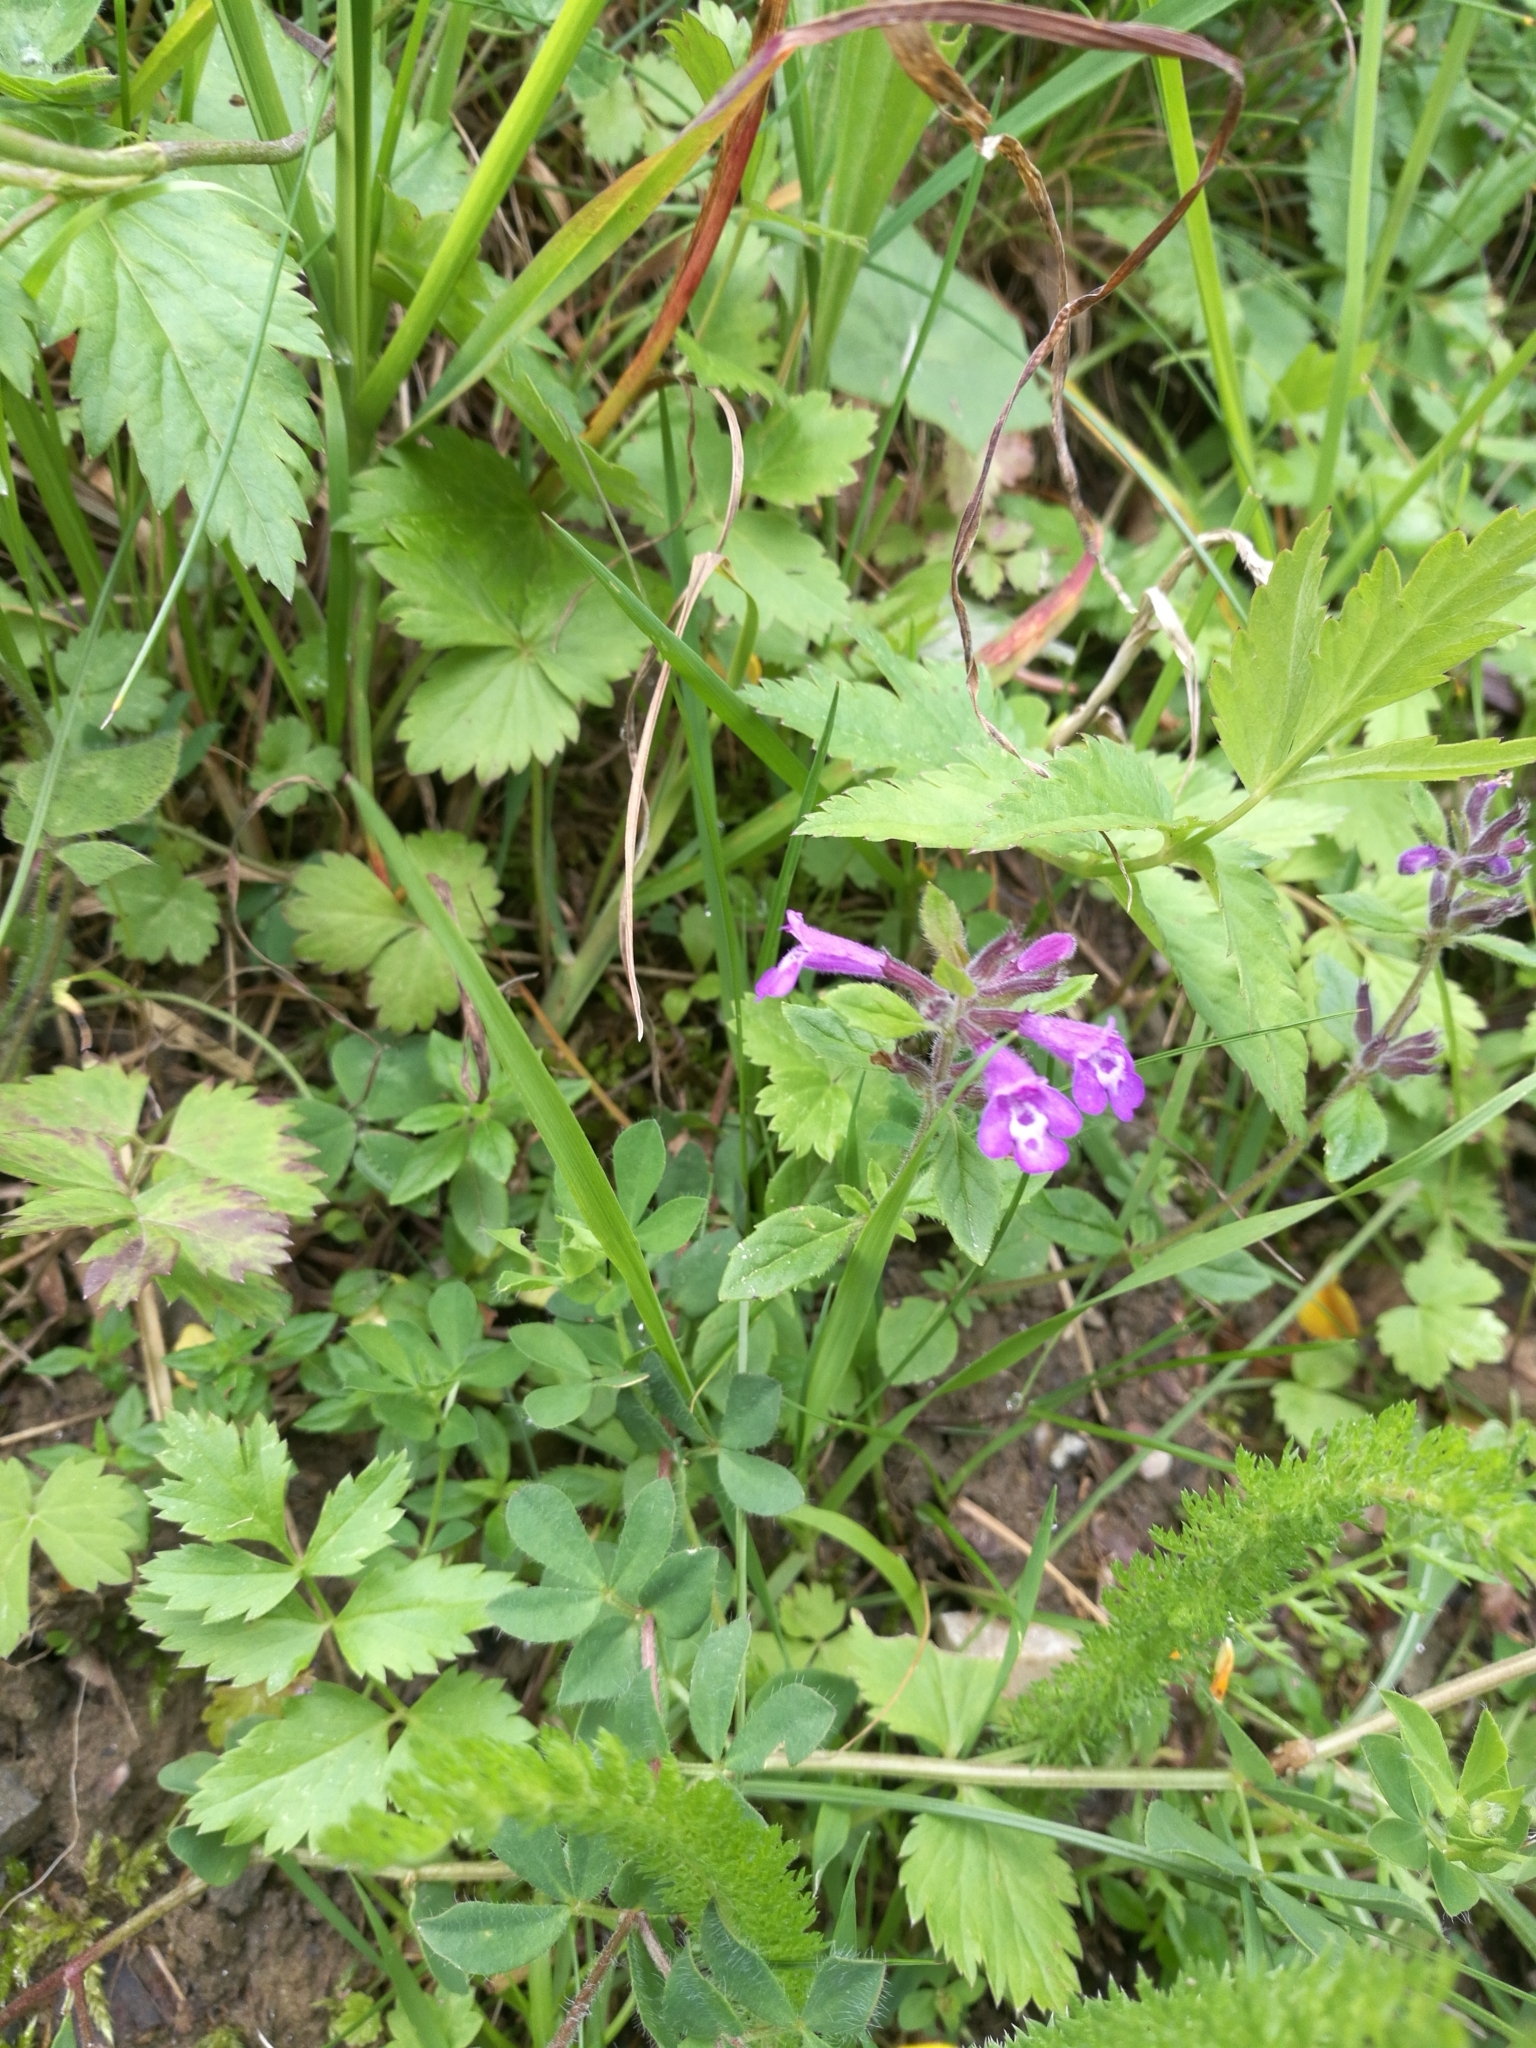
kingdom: Plantae
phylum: Tracheophyta
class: Magnoliopsida
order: Lamiales
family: Lamiaceae
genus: Clinopodium
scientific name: Clinopodium alpinum
